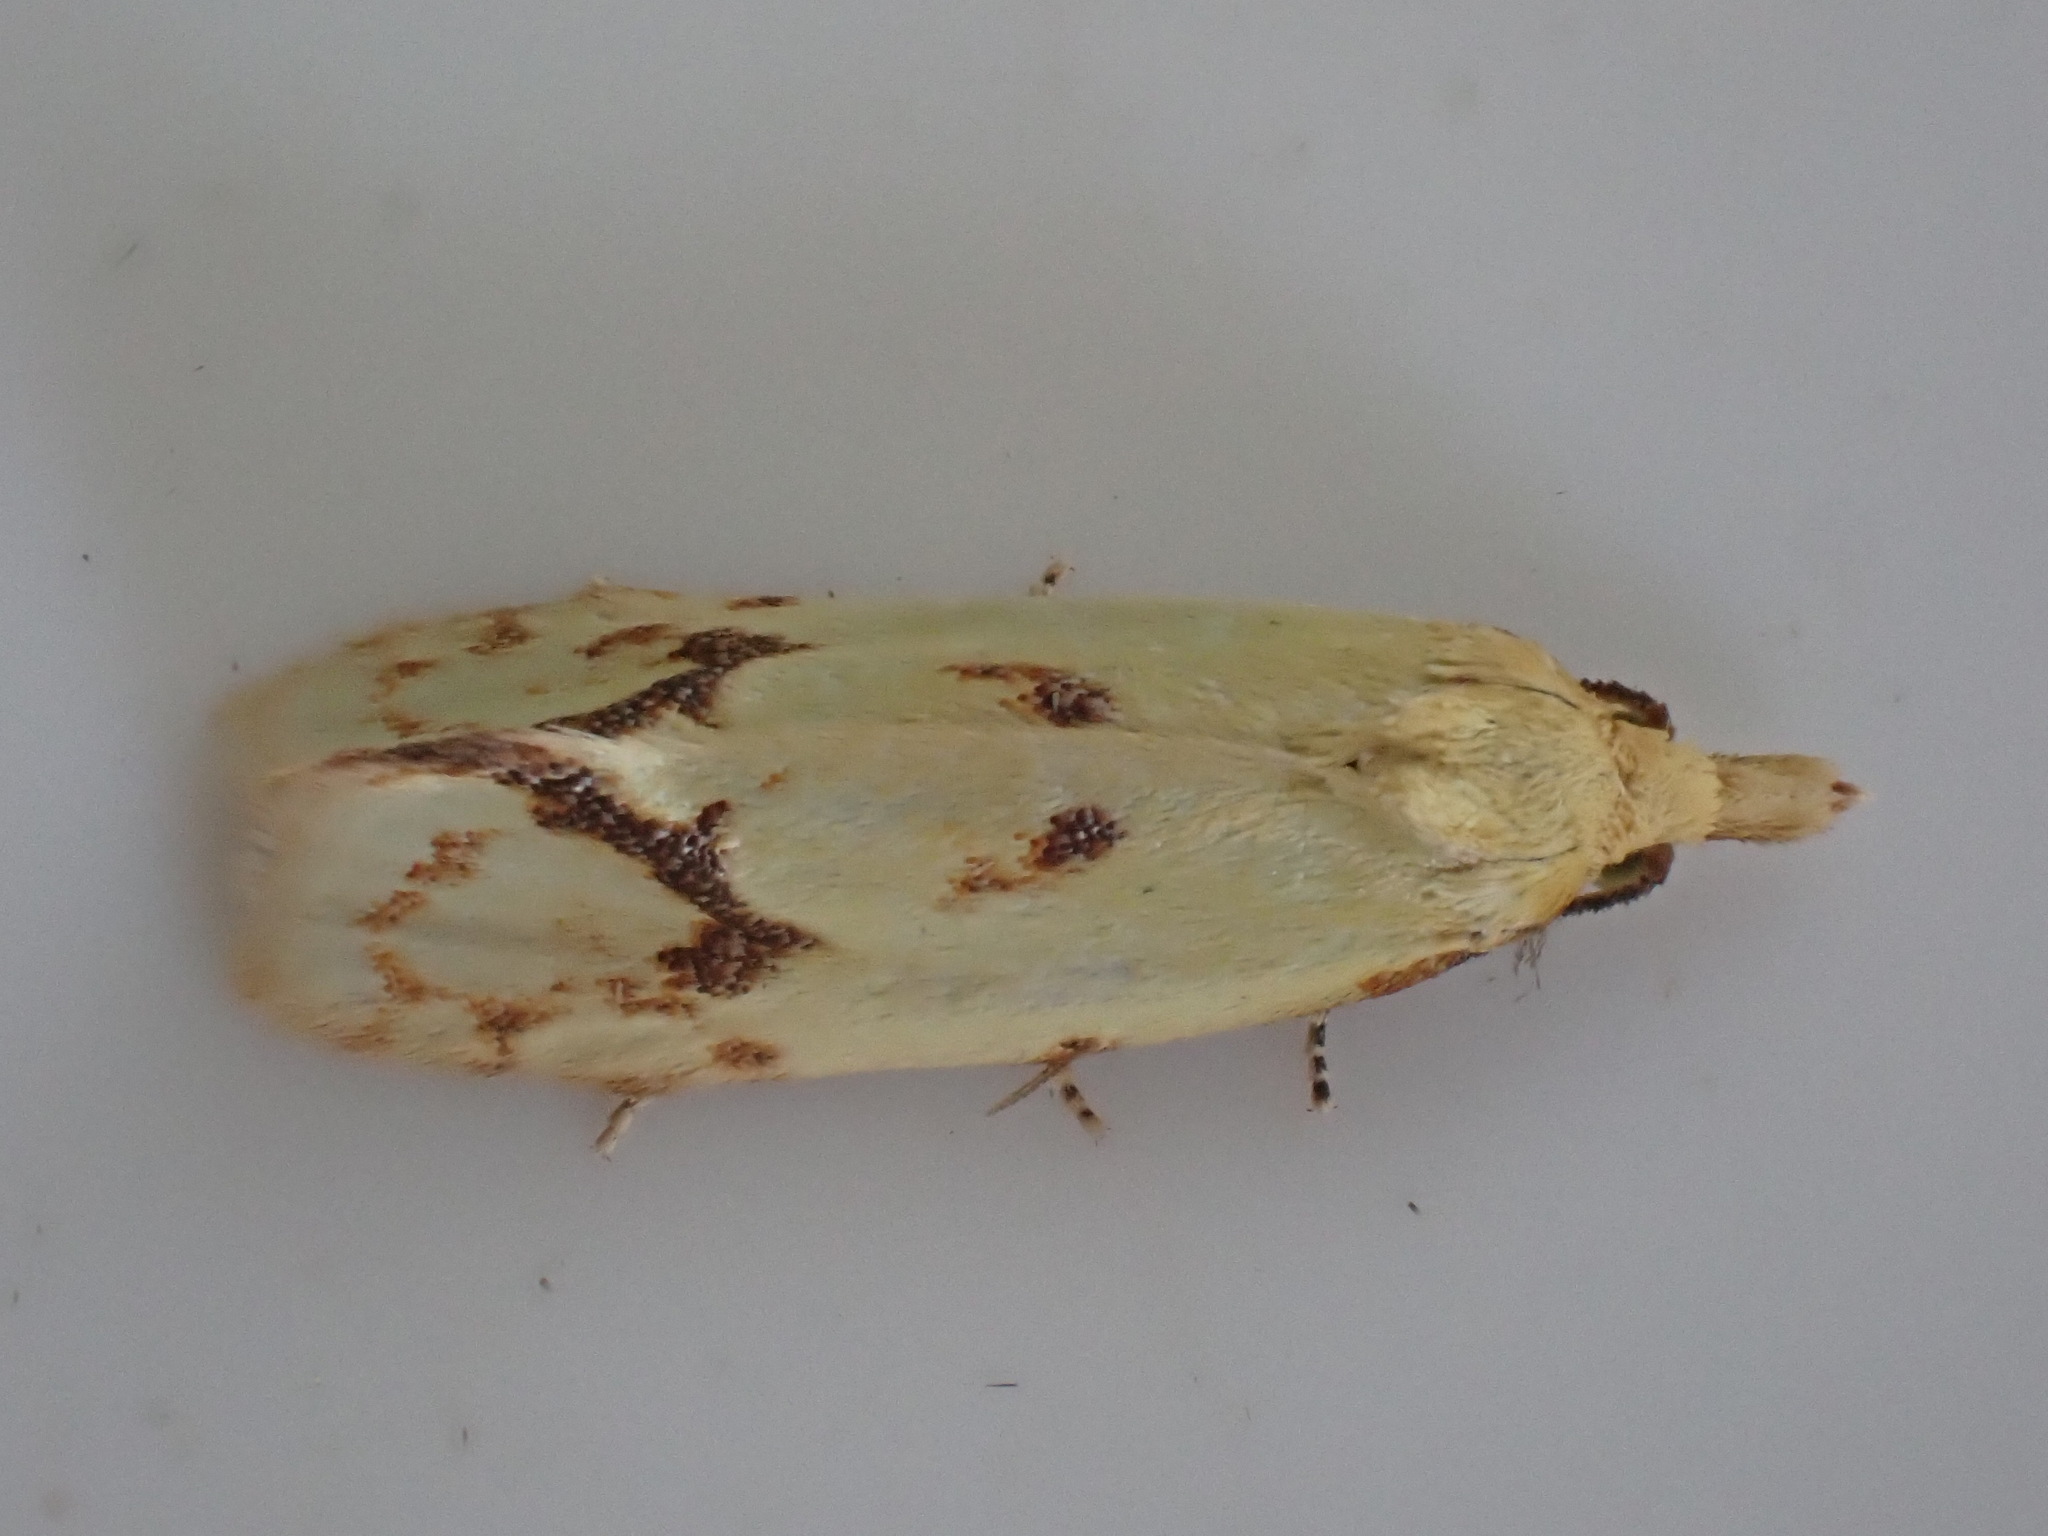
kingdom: Animalia
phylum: Arthropoda
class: Insecta
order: Lepidoptera
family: Tortricidae
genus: Agapeta
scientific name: Agapeta hamana
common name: Common yellow conch
